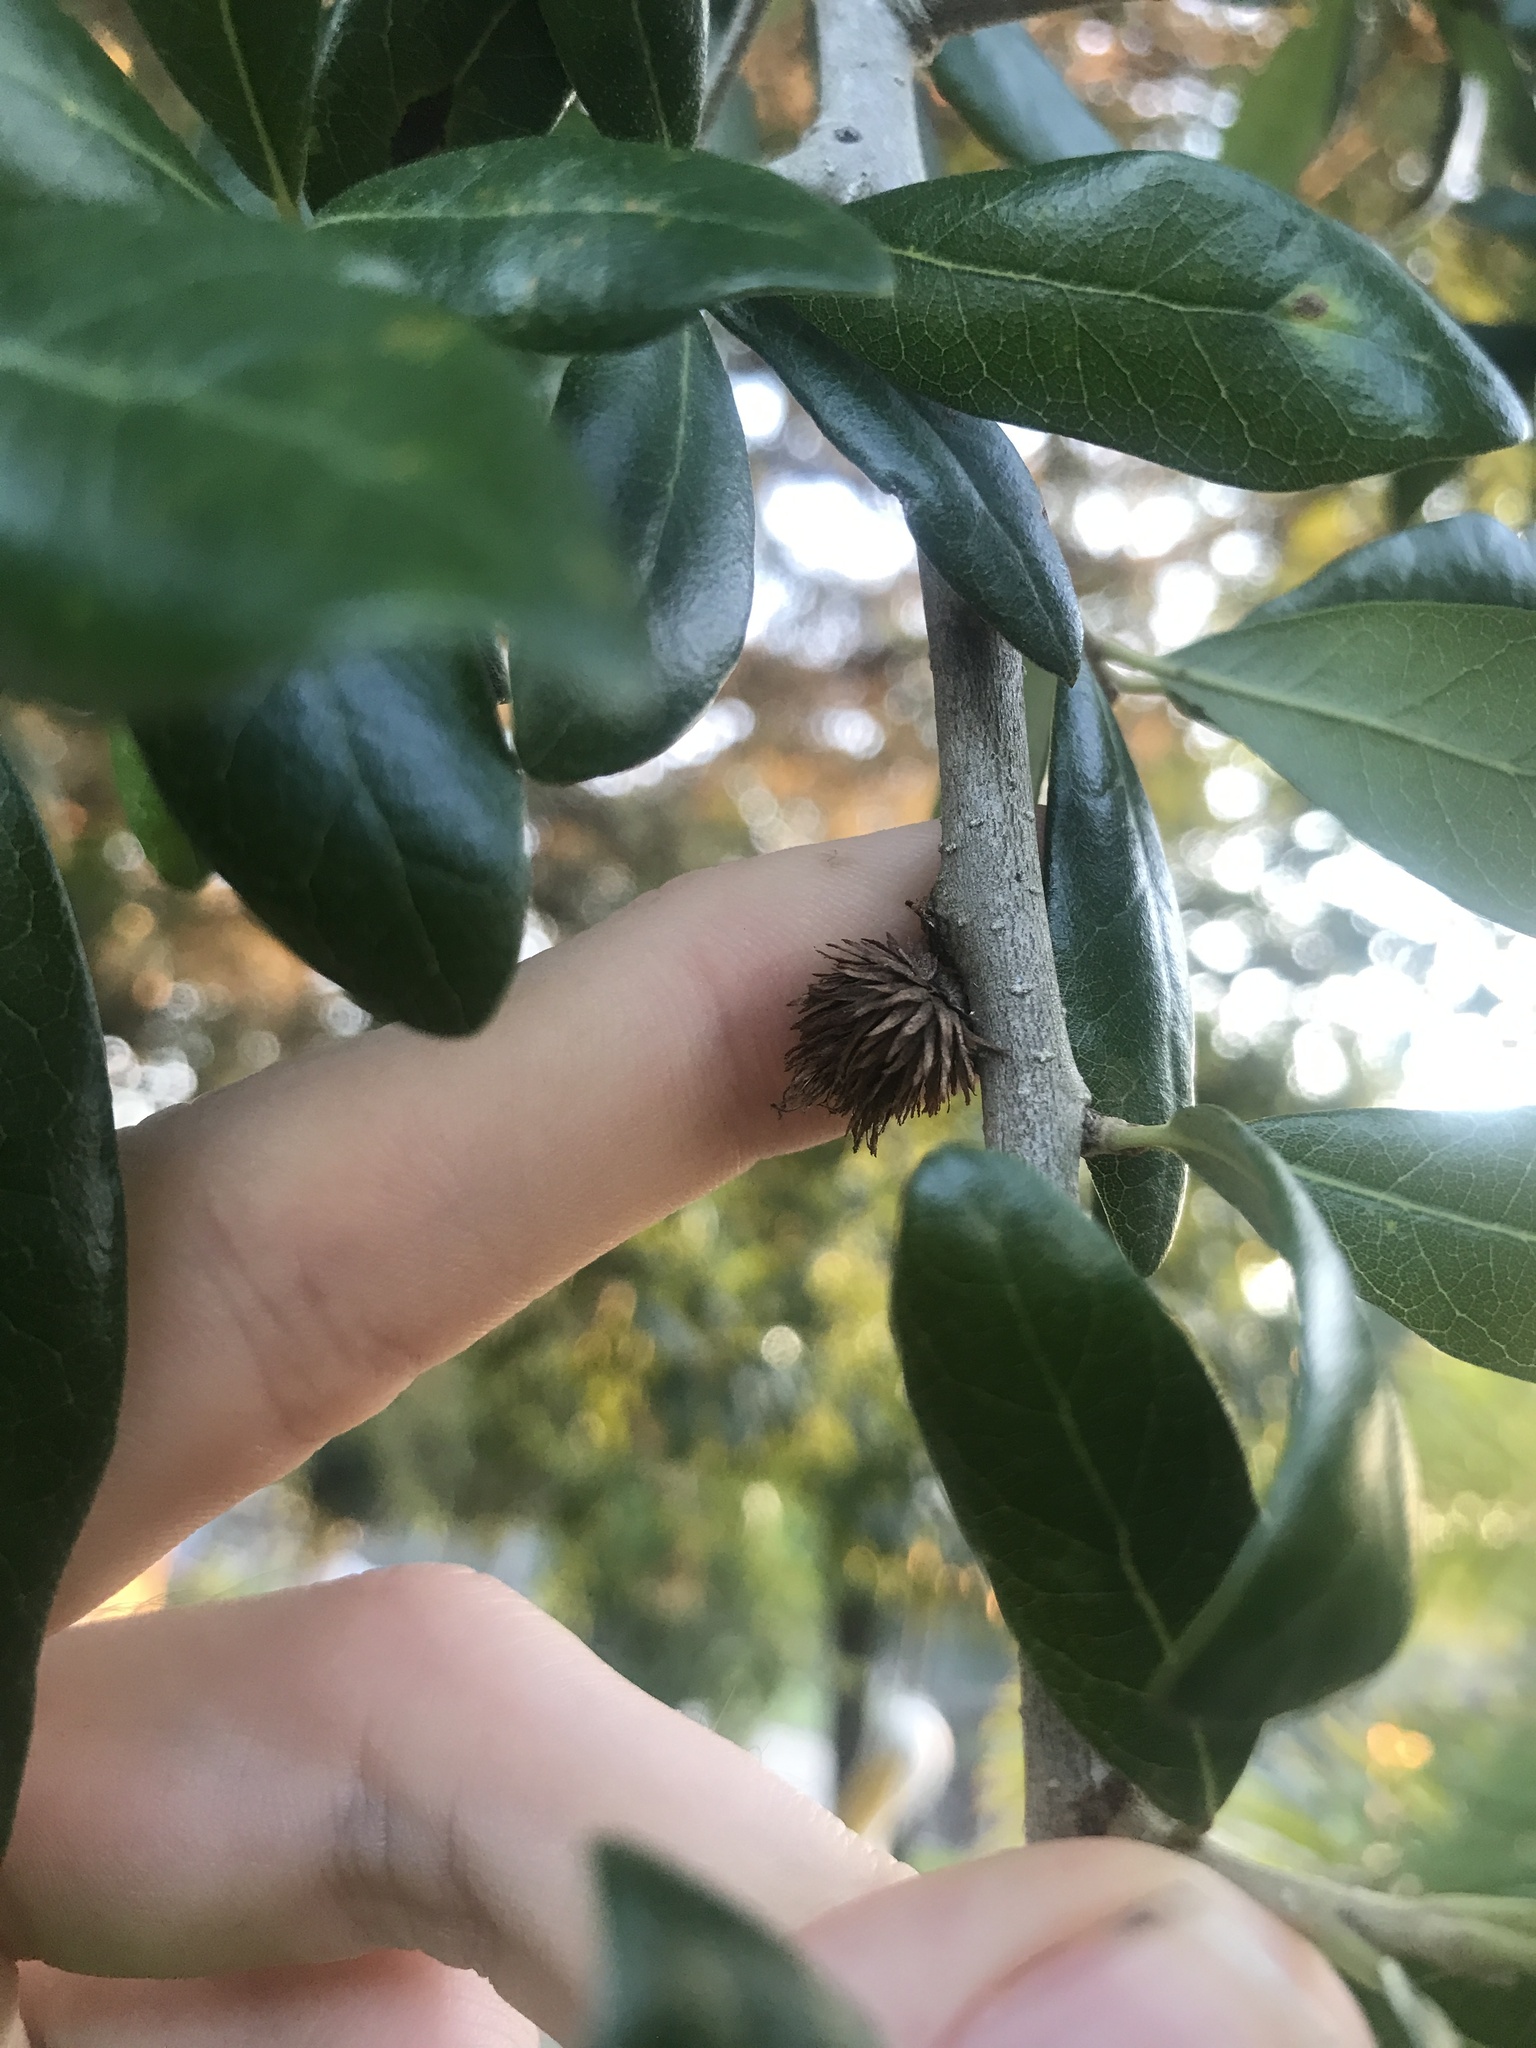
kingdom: Animalia
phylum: Arthropoda
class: Insecta
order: Hymenoptera
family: Cynipidae
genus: Andricus
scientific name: Andricus quercusfoliatus
